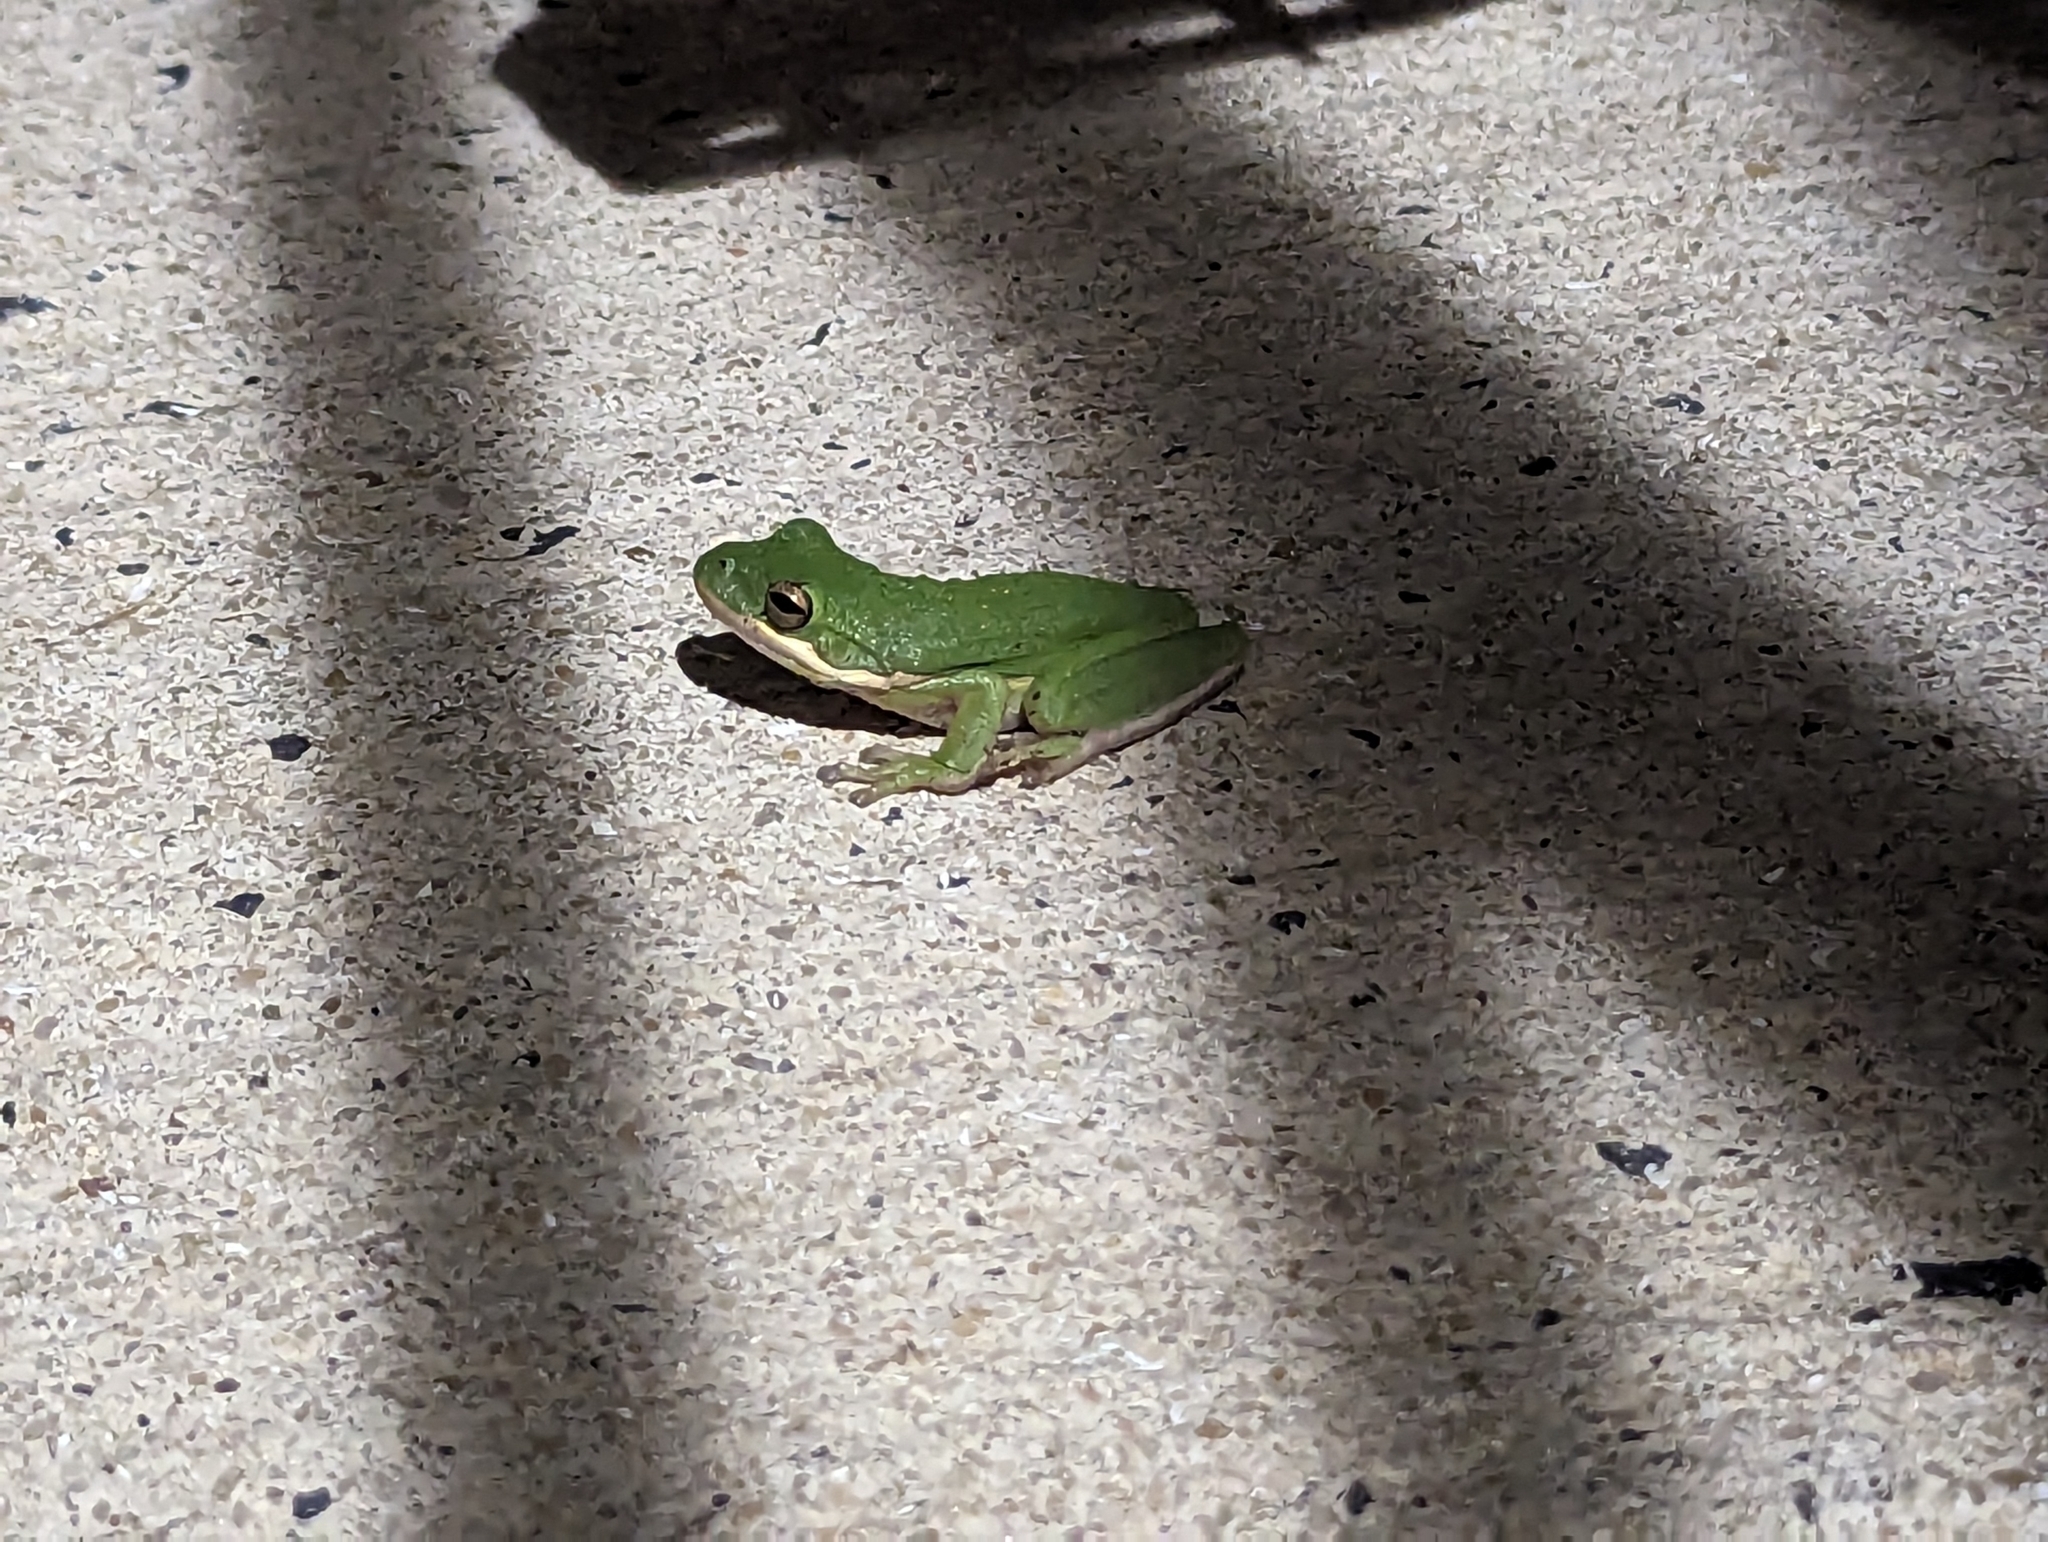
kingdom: Animalia
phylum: Chordata
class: Amphibia
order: Anura
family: Hylidae
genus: Dryophytes
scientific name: Dryophytes cinereus
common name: Green treefrog
